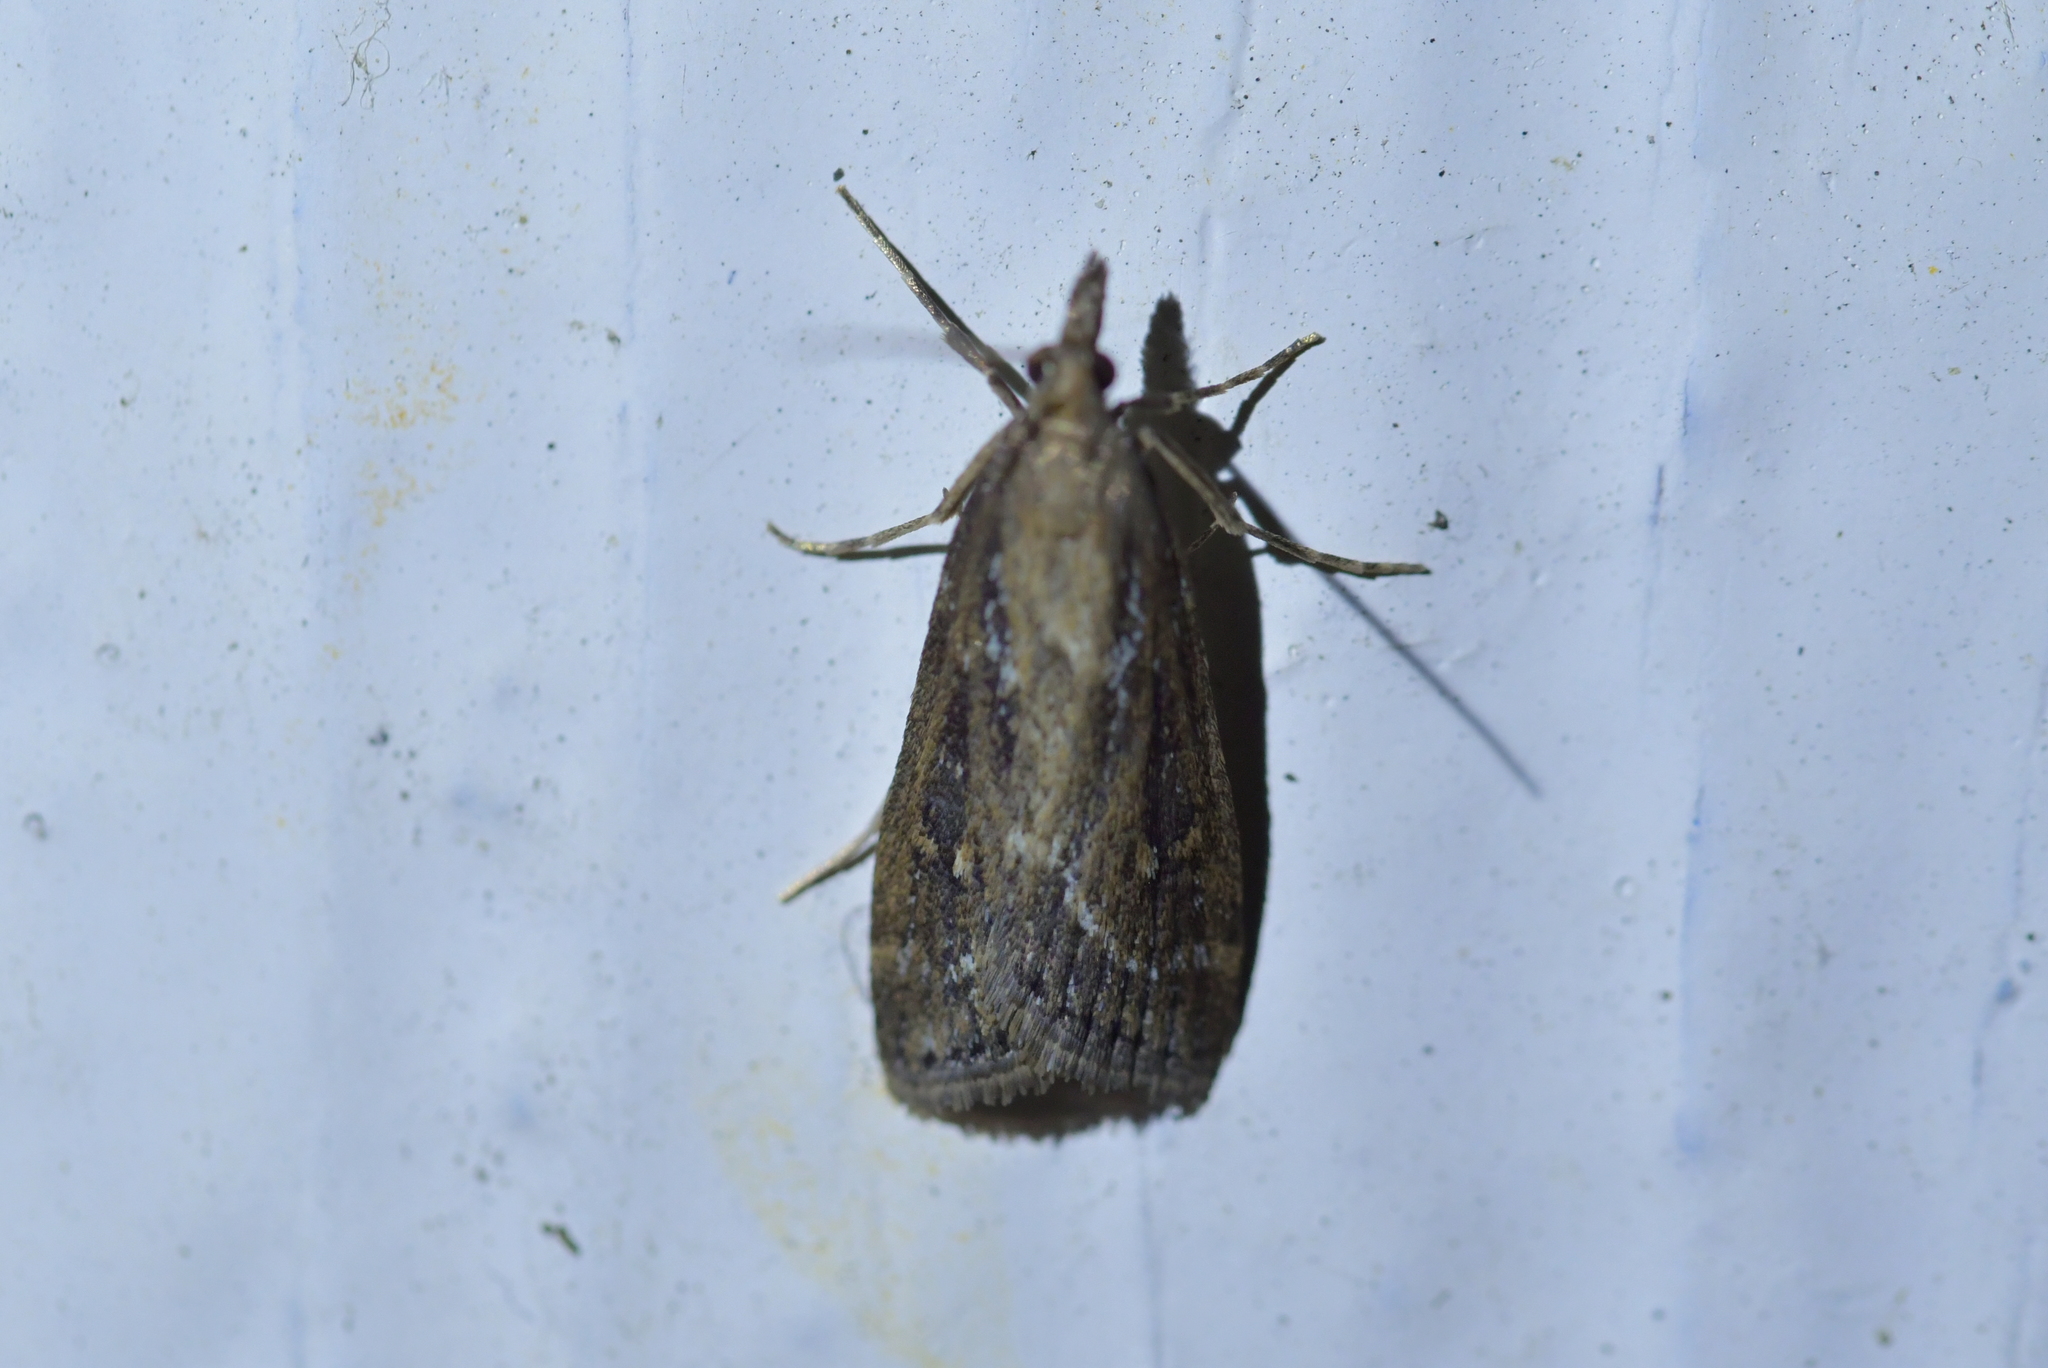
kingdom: Animalia
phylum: Arthropoda
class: Insecta
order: Lepidoptera
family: Crambidae
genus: Eudonia
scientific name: Eudonia octophora
